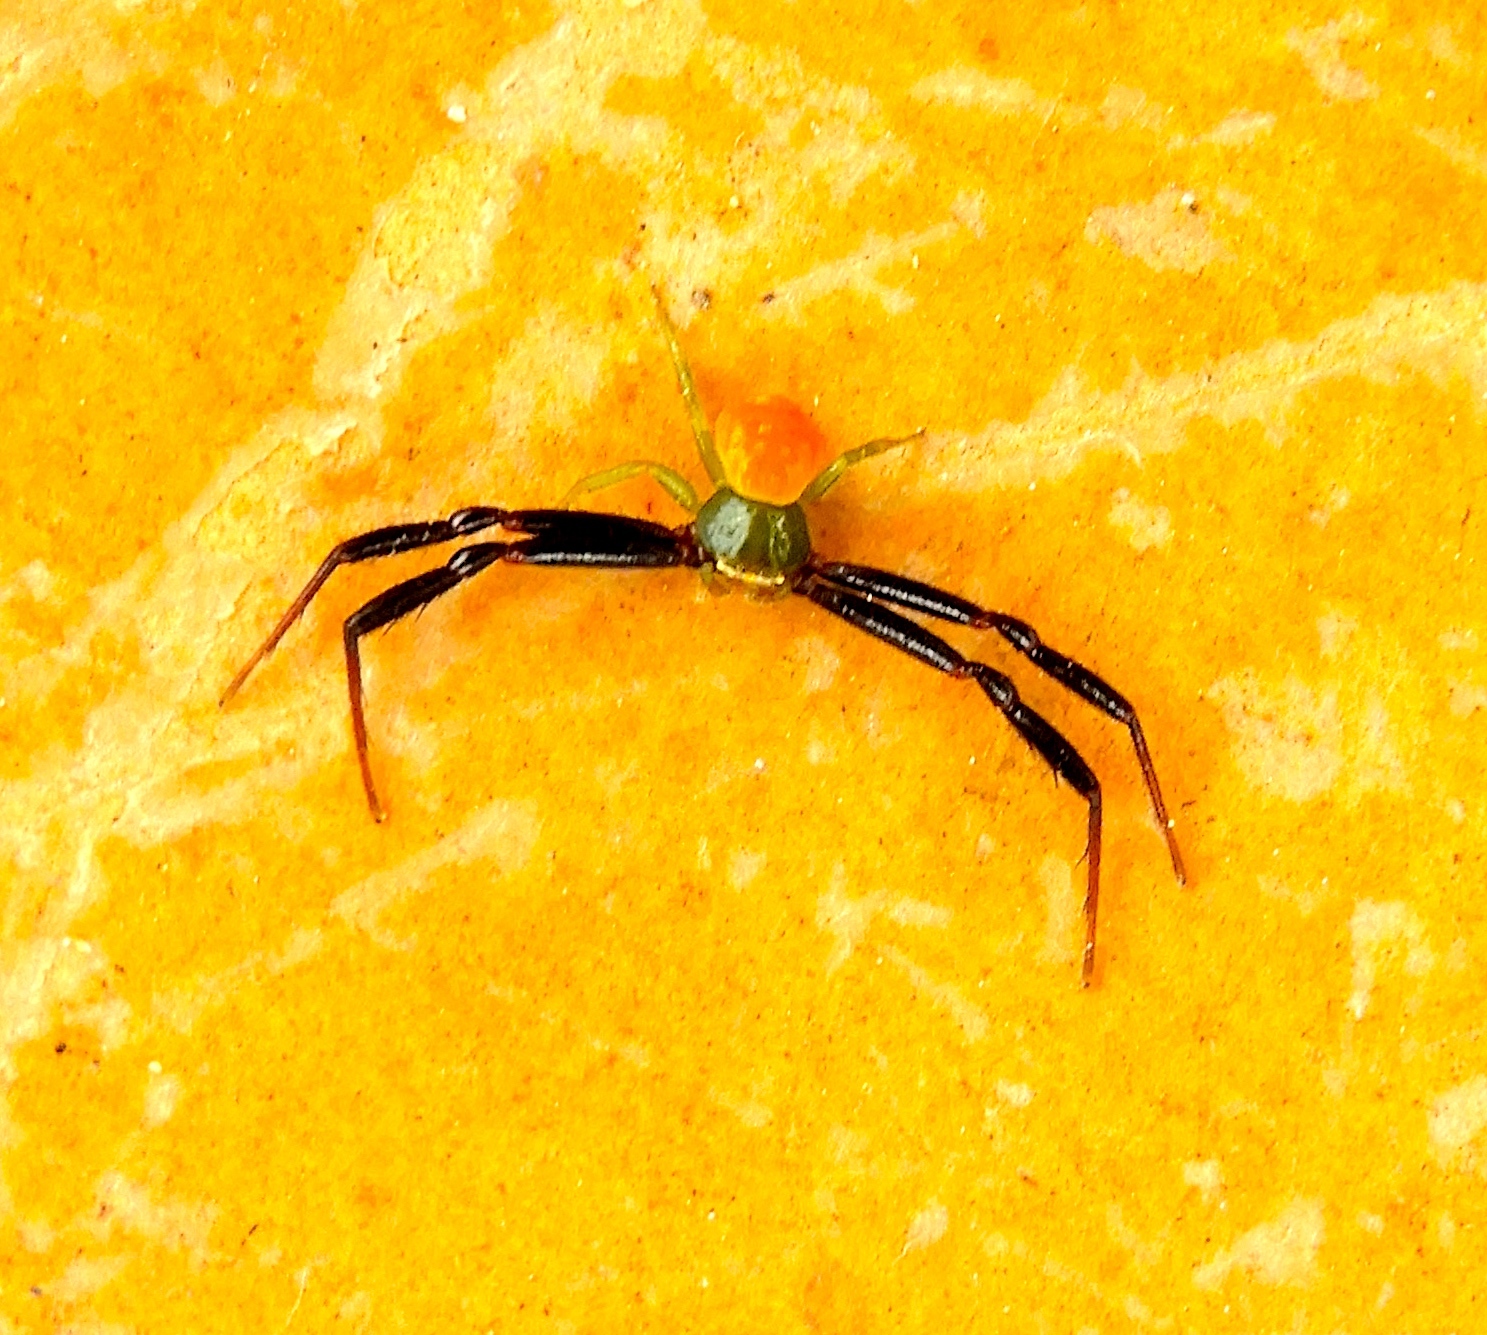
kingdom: Animalia
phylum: Arthropoda
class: Arachnida
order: Araneae
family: Thomisidae
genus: Misumenoides
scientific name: Misumenoides
